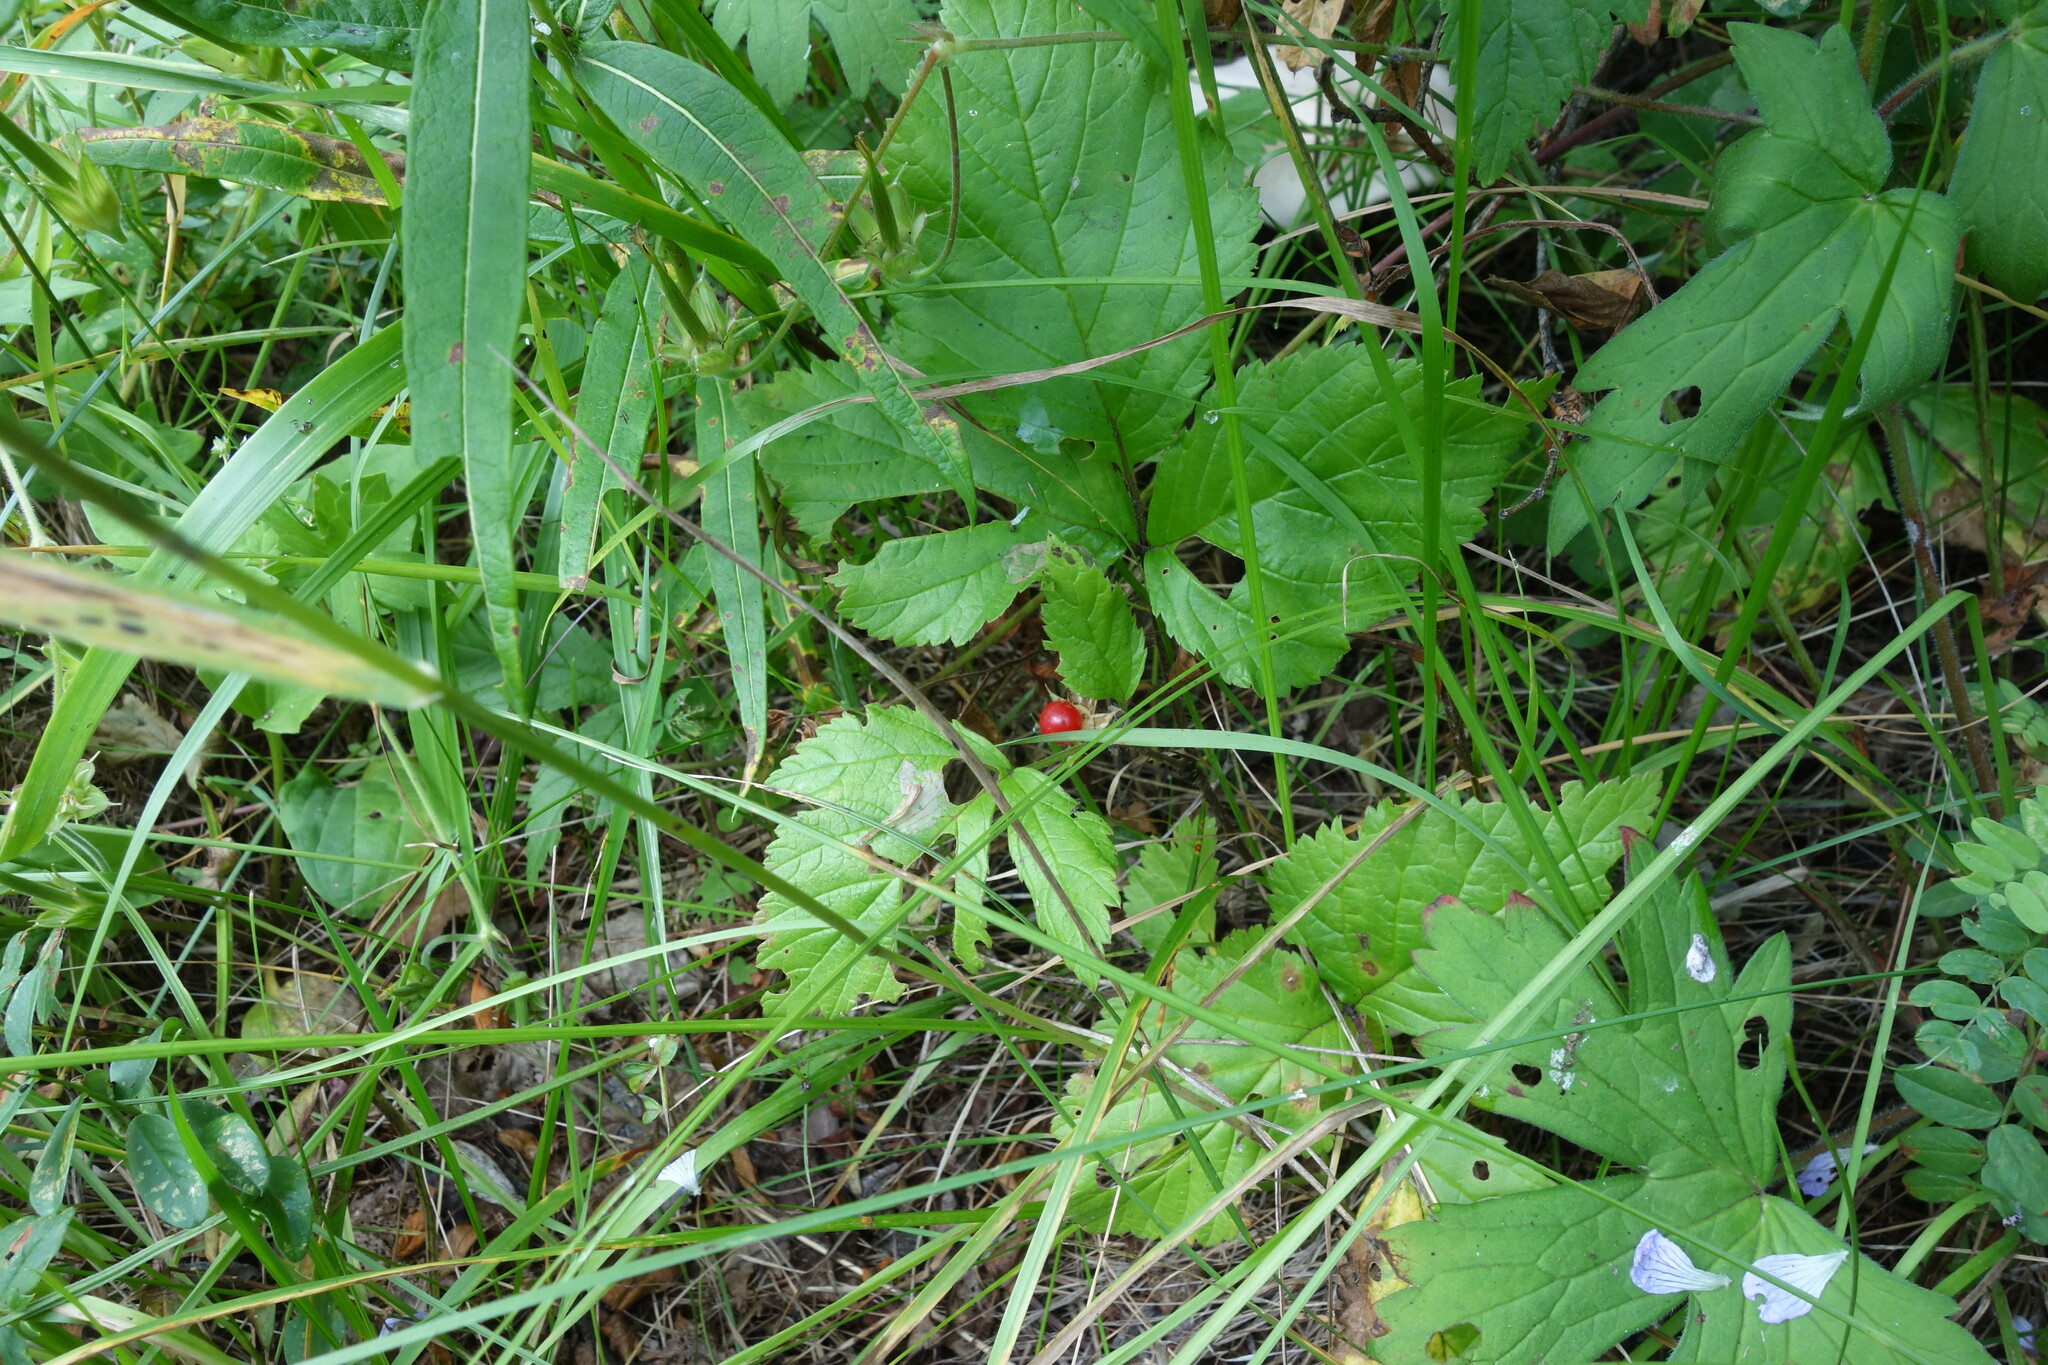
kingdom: Plantae
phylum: Tracheophyta
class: Magnoliopsida
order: Rosales
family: Rosaceae
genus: Rubus
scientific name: Rubus saxatilis
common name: Stone bramble
